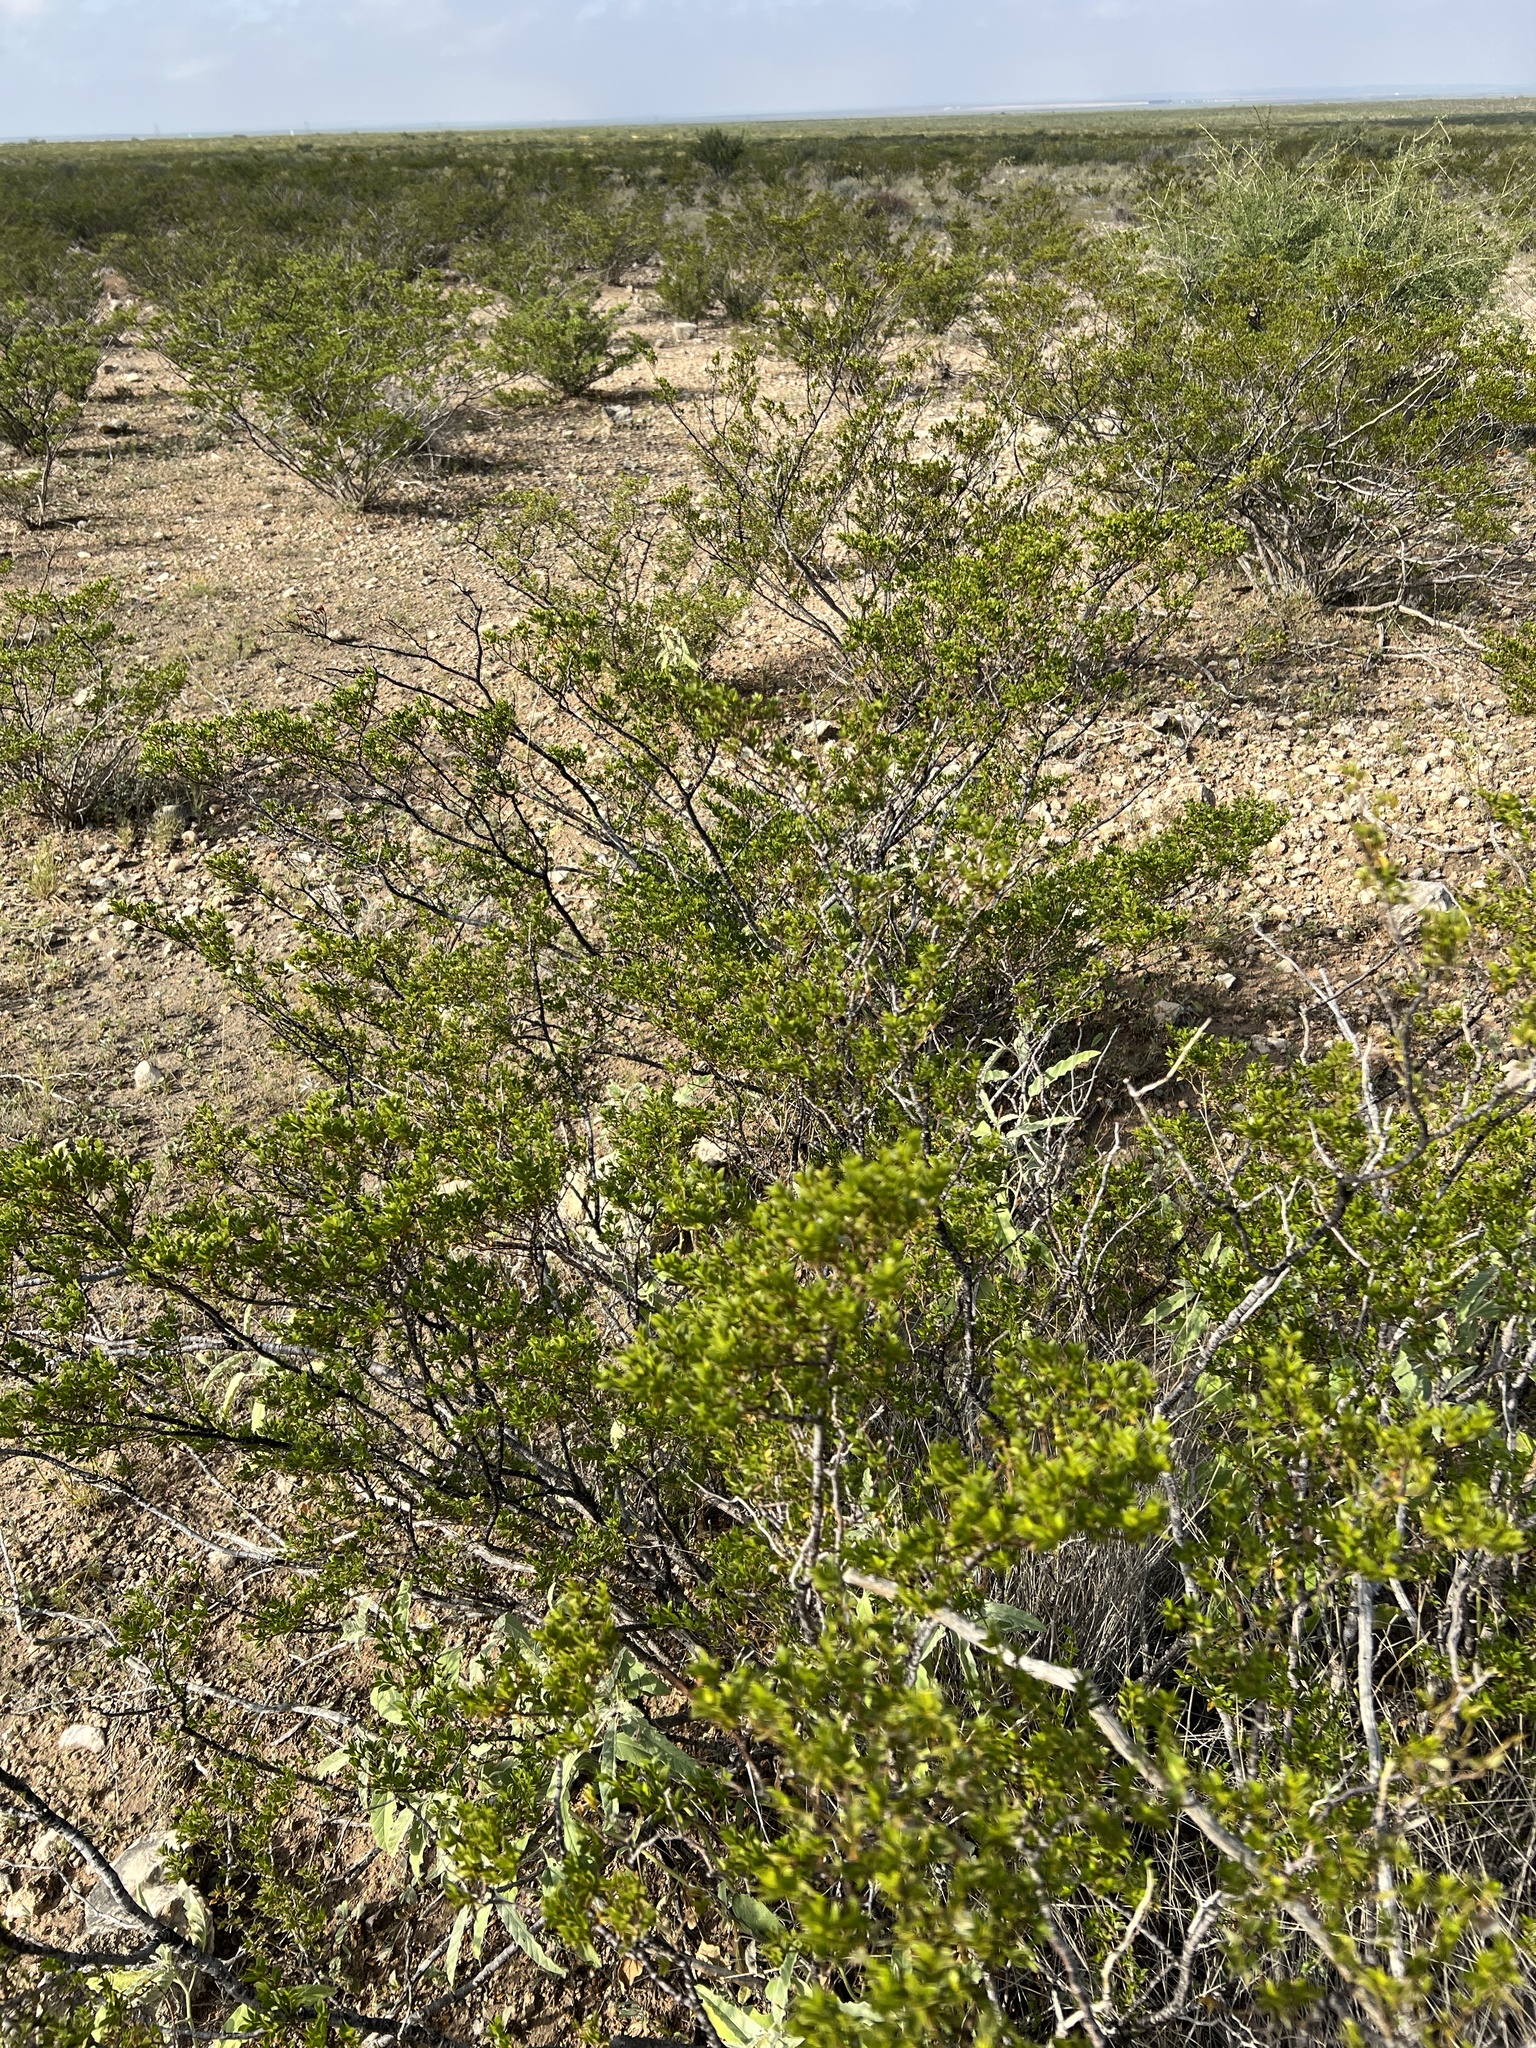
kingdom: Plantae
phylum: Tracheophyta
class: Magnoliopsida
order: Zygophyllales
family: Zygophyllaceae
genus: Larrea
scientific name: Larrea tridentata
